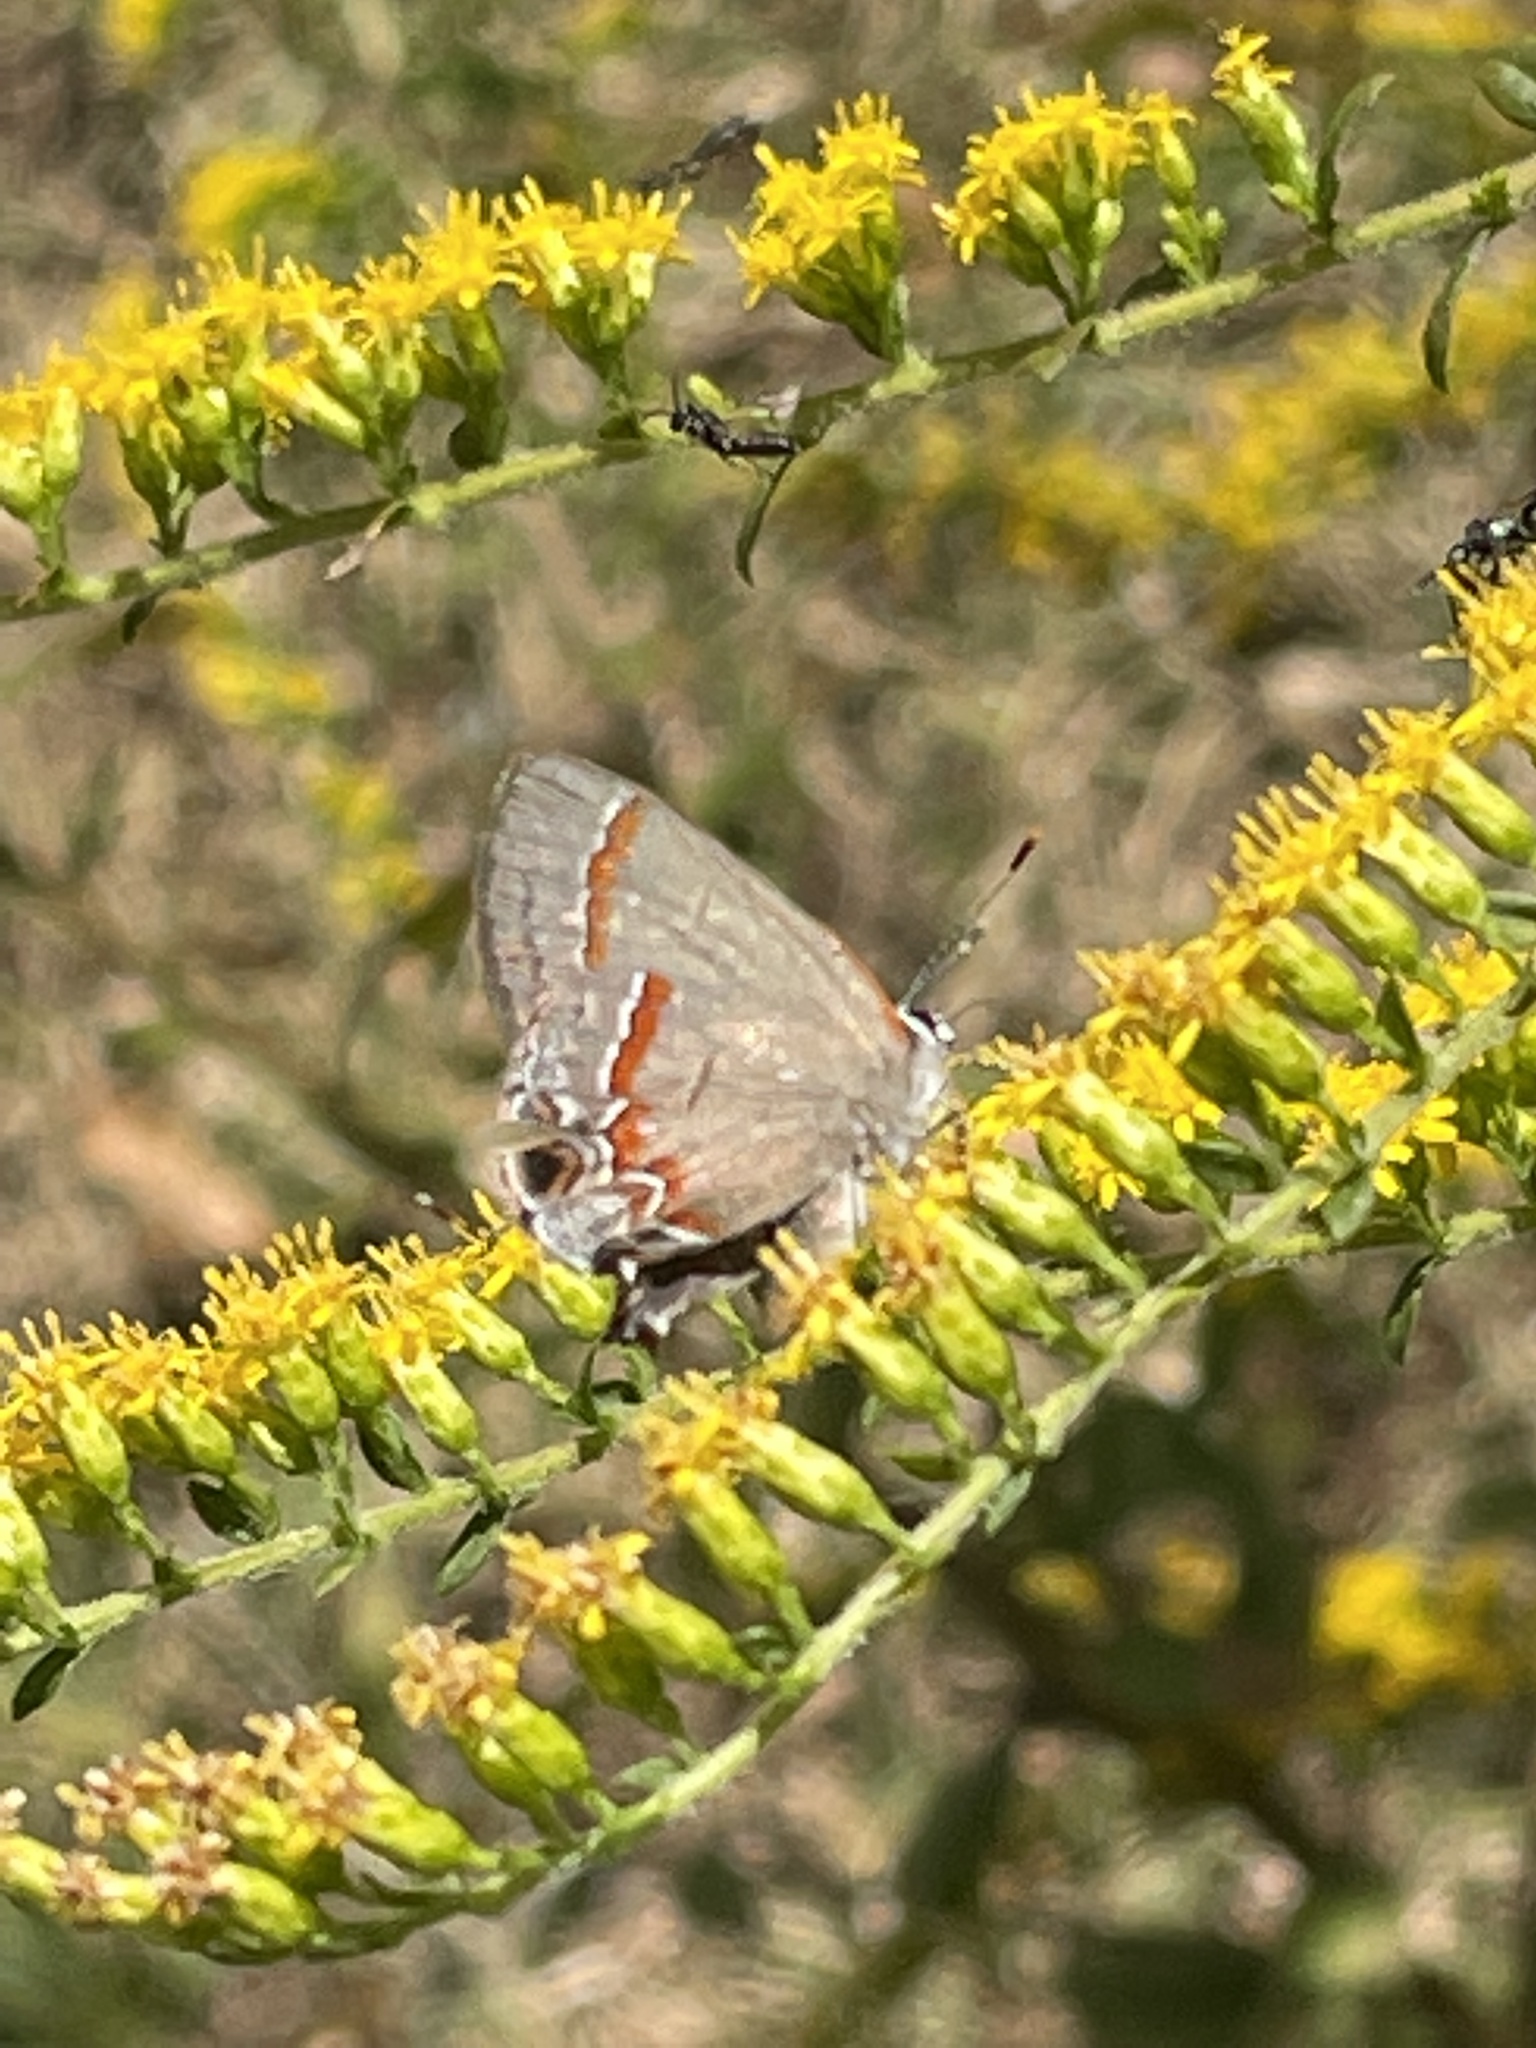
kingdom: Animalia
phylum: Arthropoda
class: Insecta
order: Lepidoptera
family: Lycaenidae
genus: Calycopis
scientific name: Calycopis cecrops
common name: Red-banded hairstreak
